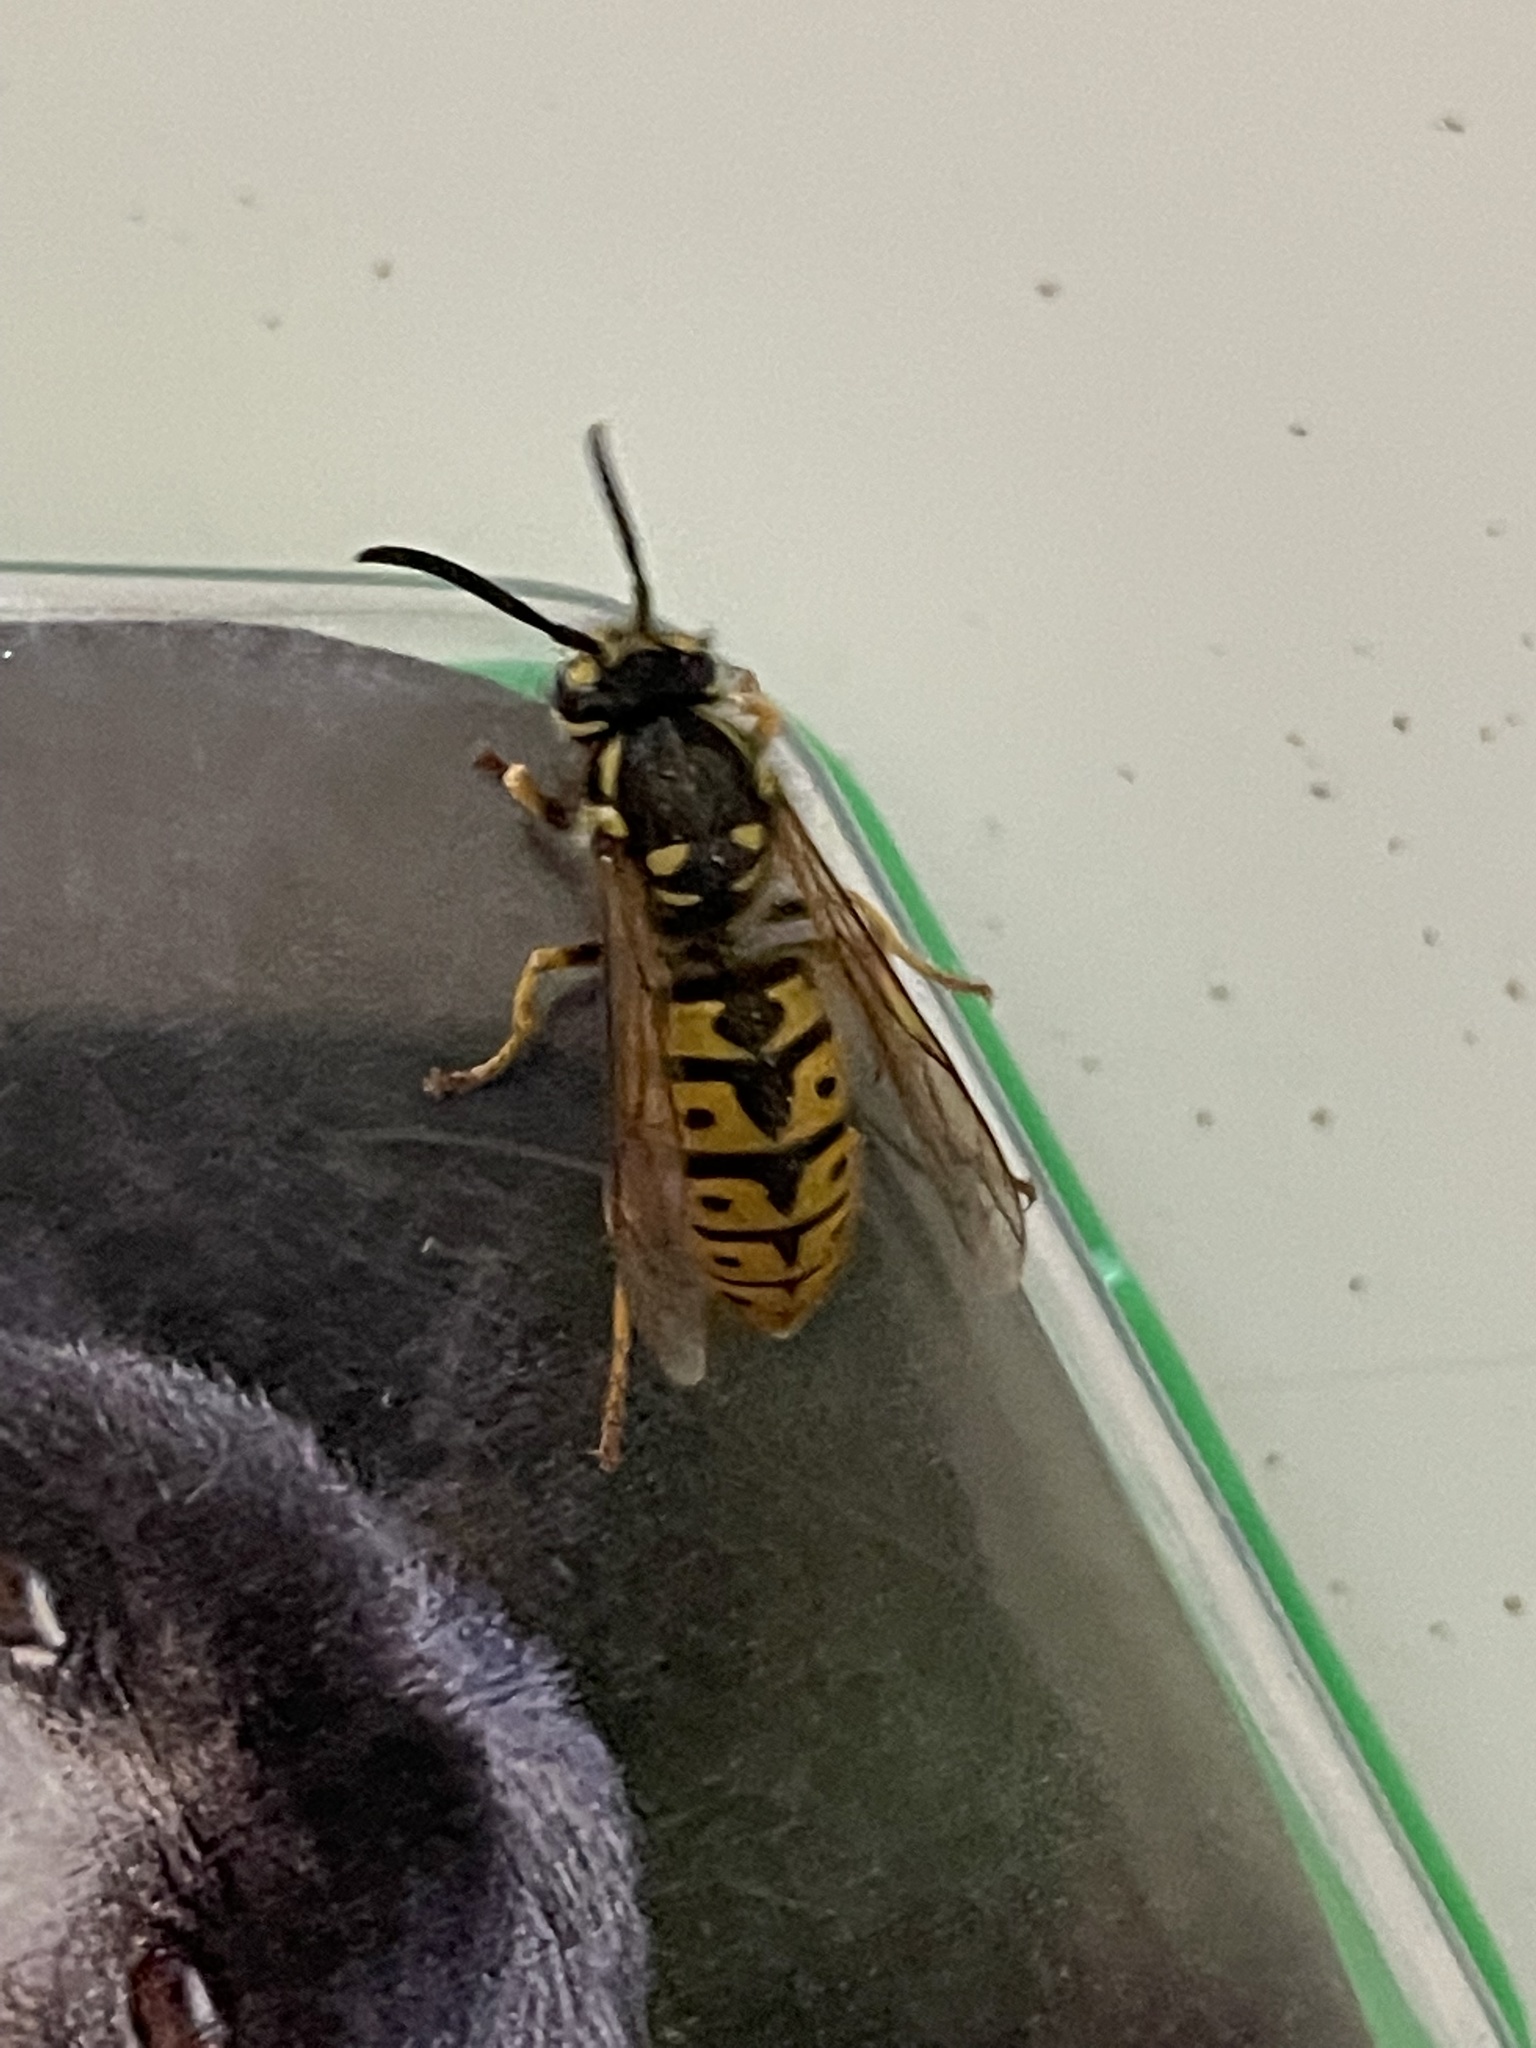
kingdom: Animalia
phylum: Arthropoda
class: Insecta
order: Hymenoptera
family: Vespidae
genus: Vespula
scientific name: Vespula germanica
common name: German wasp
